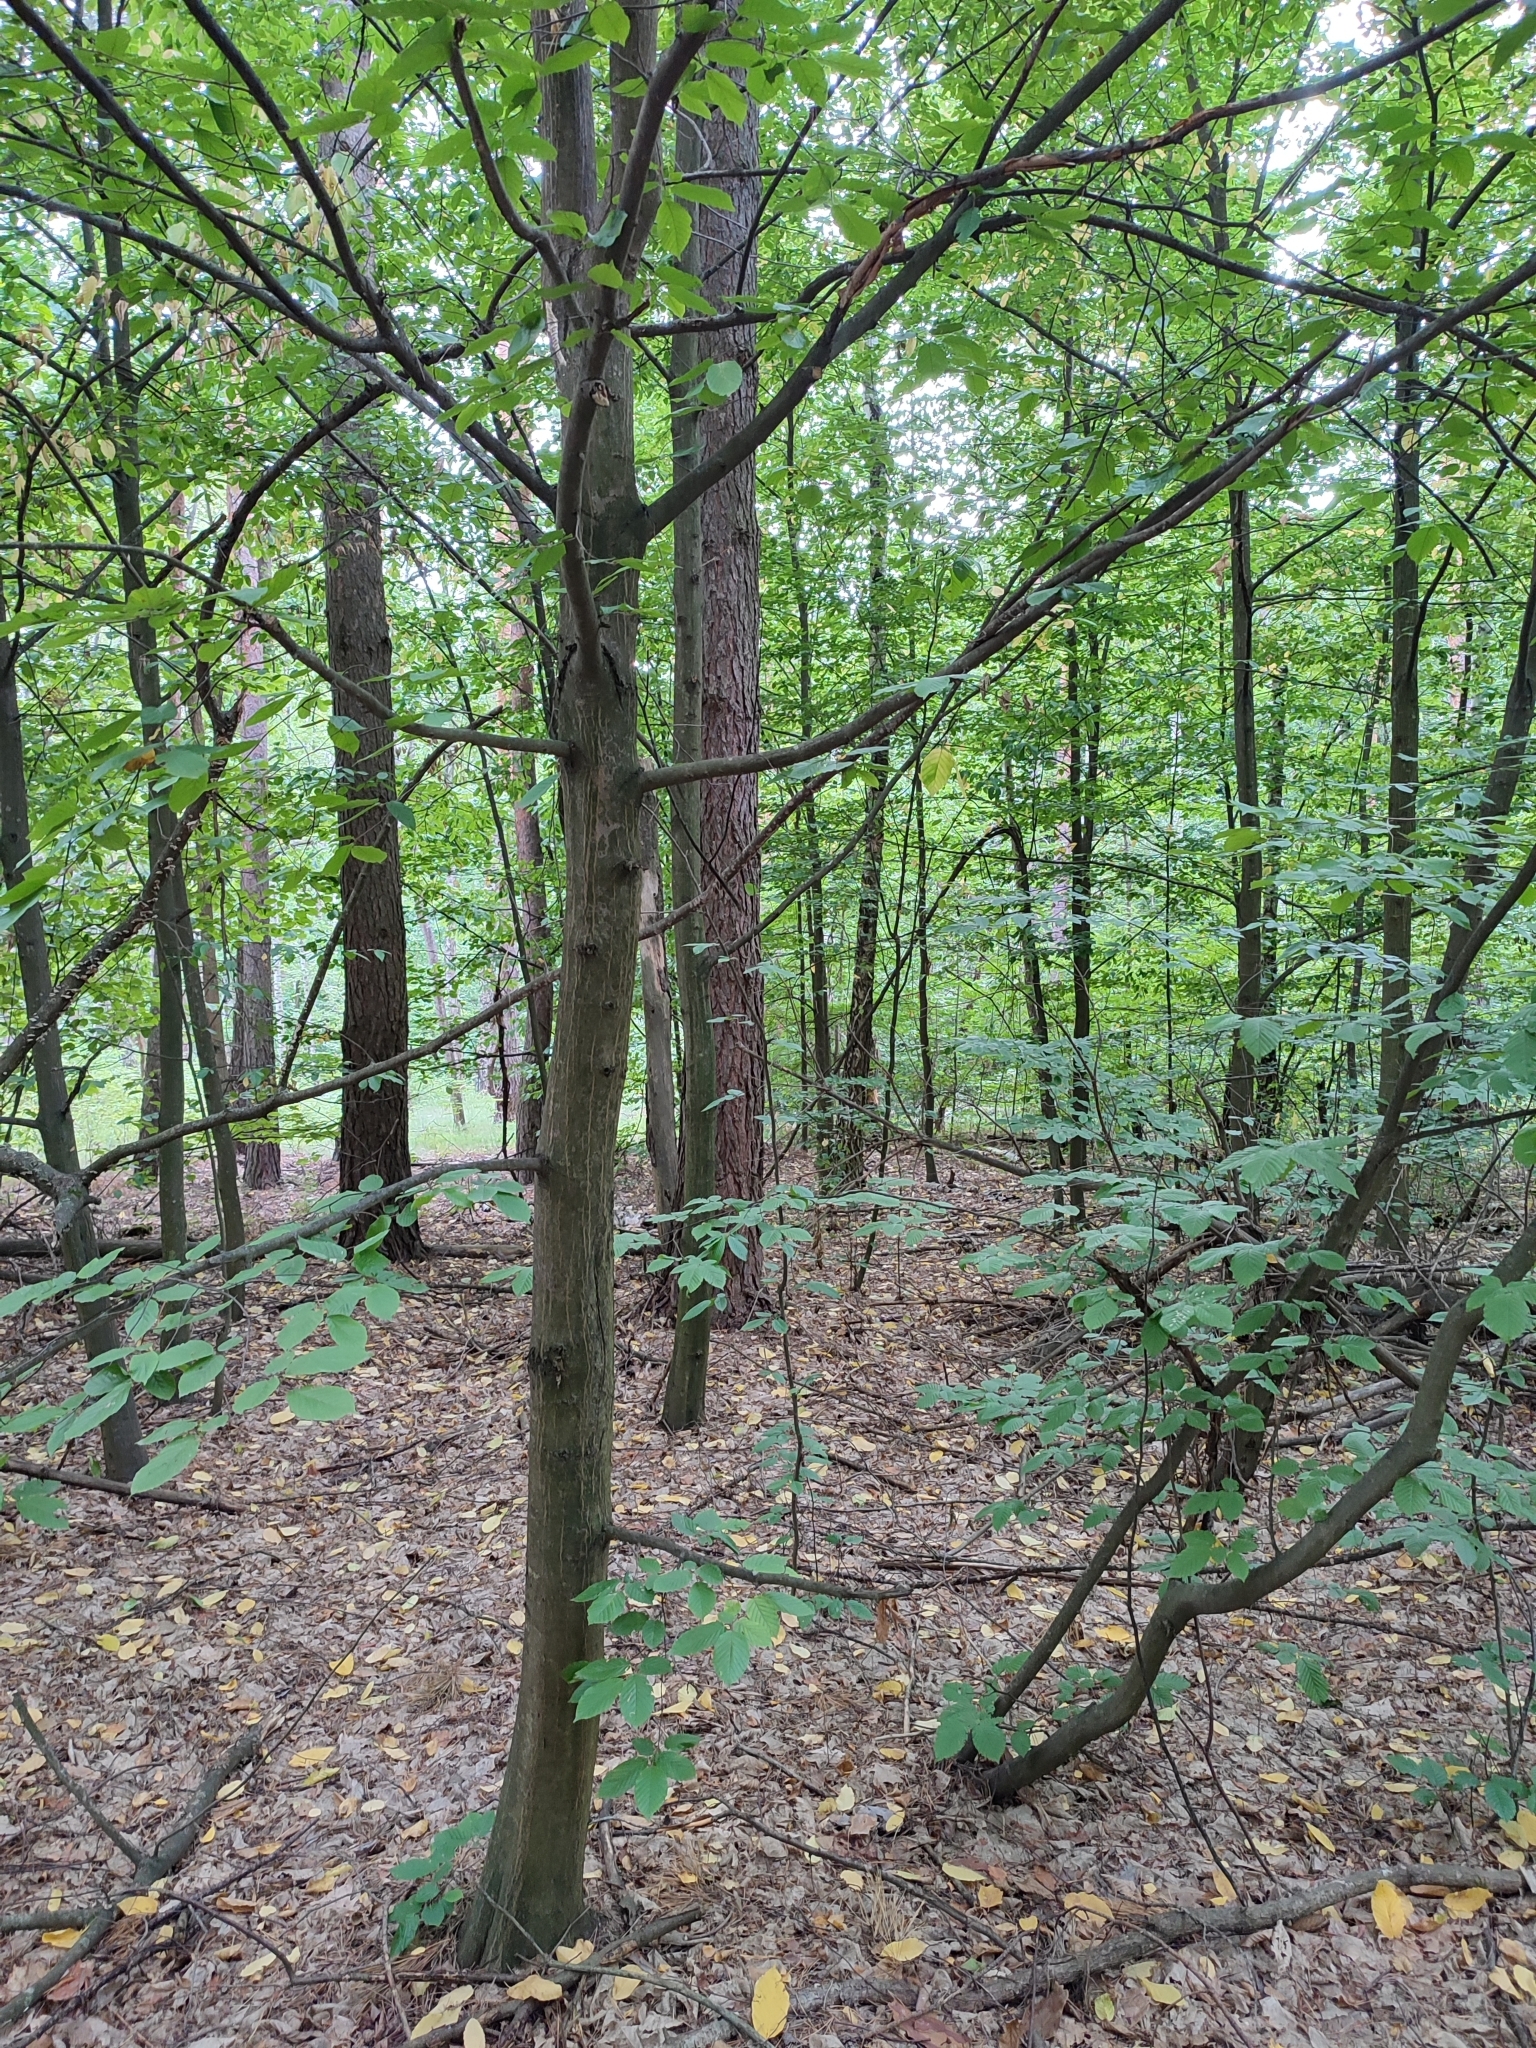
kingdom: Plantae
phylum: Tracheophyta
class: Magnoliopsida
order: Fagales
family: Betulaceae
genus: Carpinus
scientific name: Carpinus betulus
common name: Hornbeam
